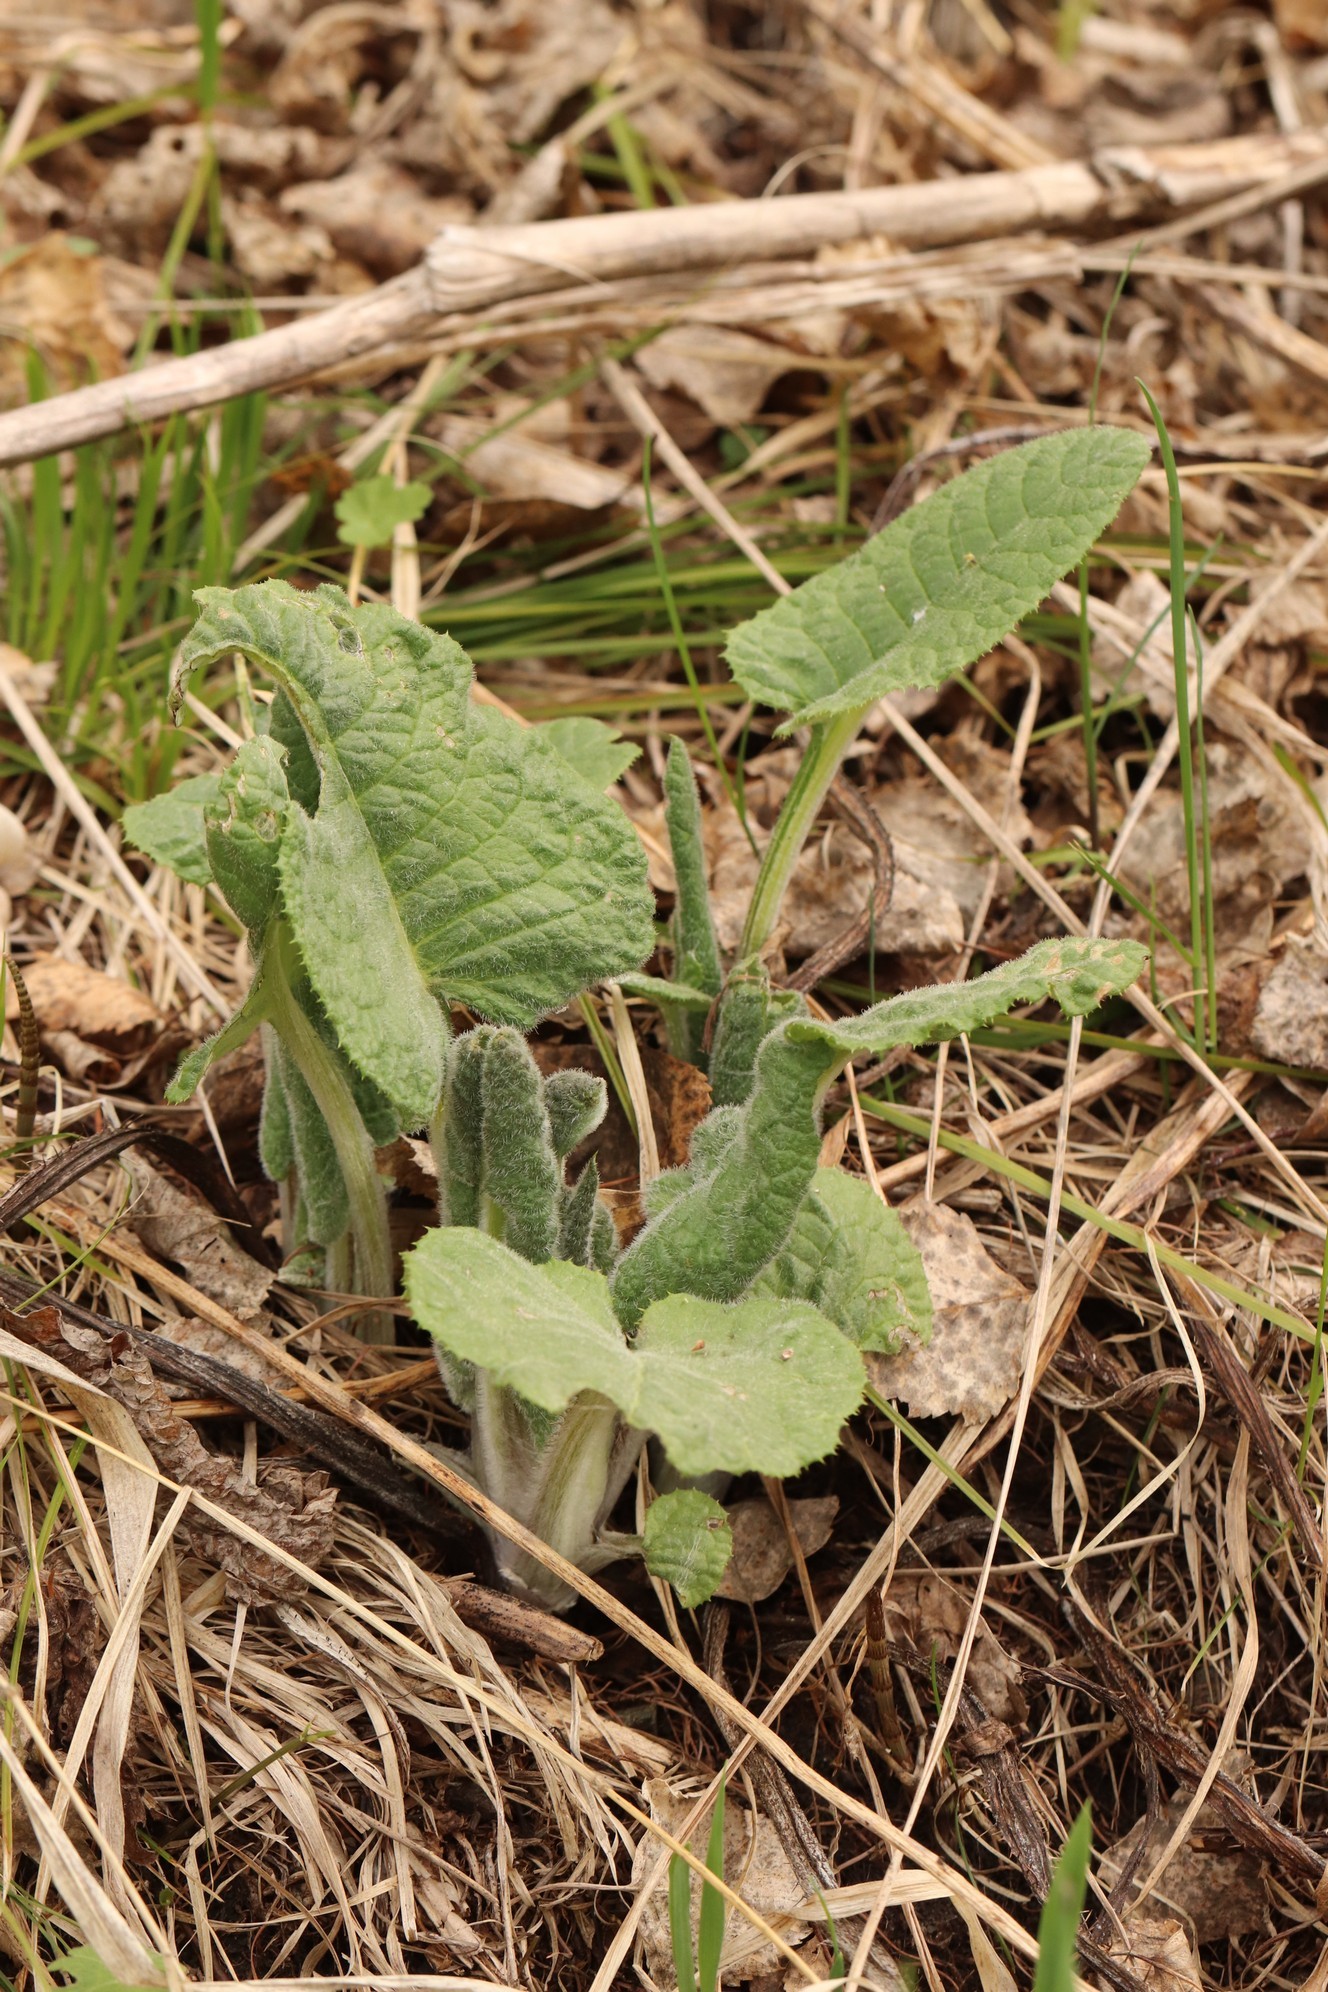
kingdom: Plantae
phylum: Tracheophyta
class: Magnoliopsida
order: Asterales
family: Asteraceae
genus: Alfredia
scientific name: Alfredia cernua
